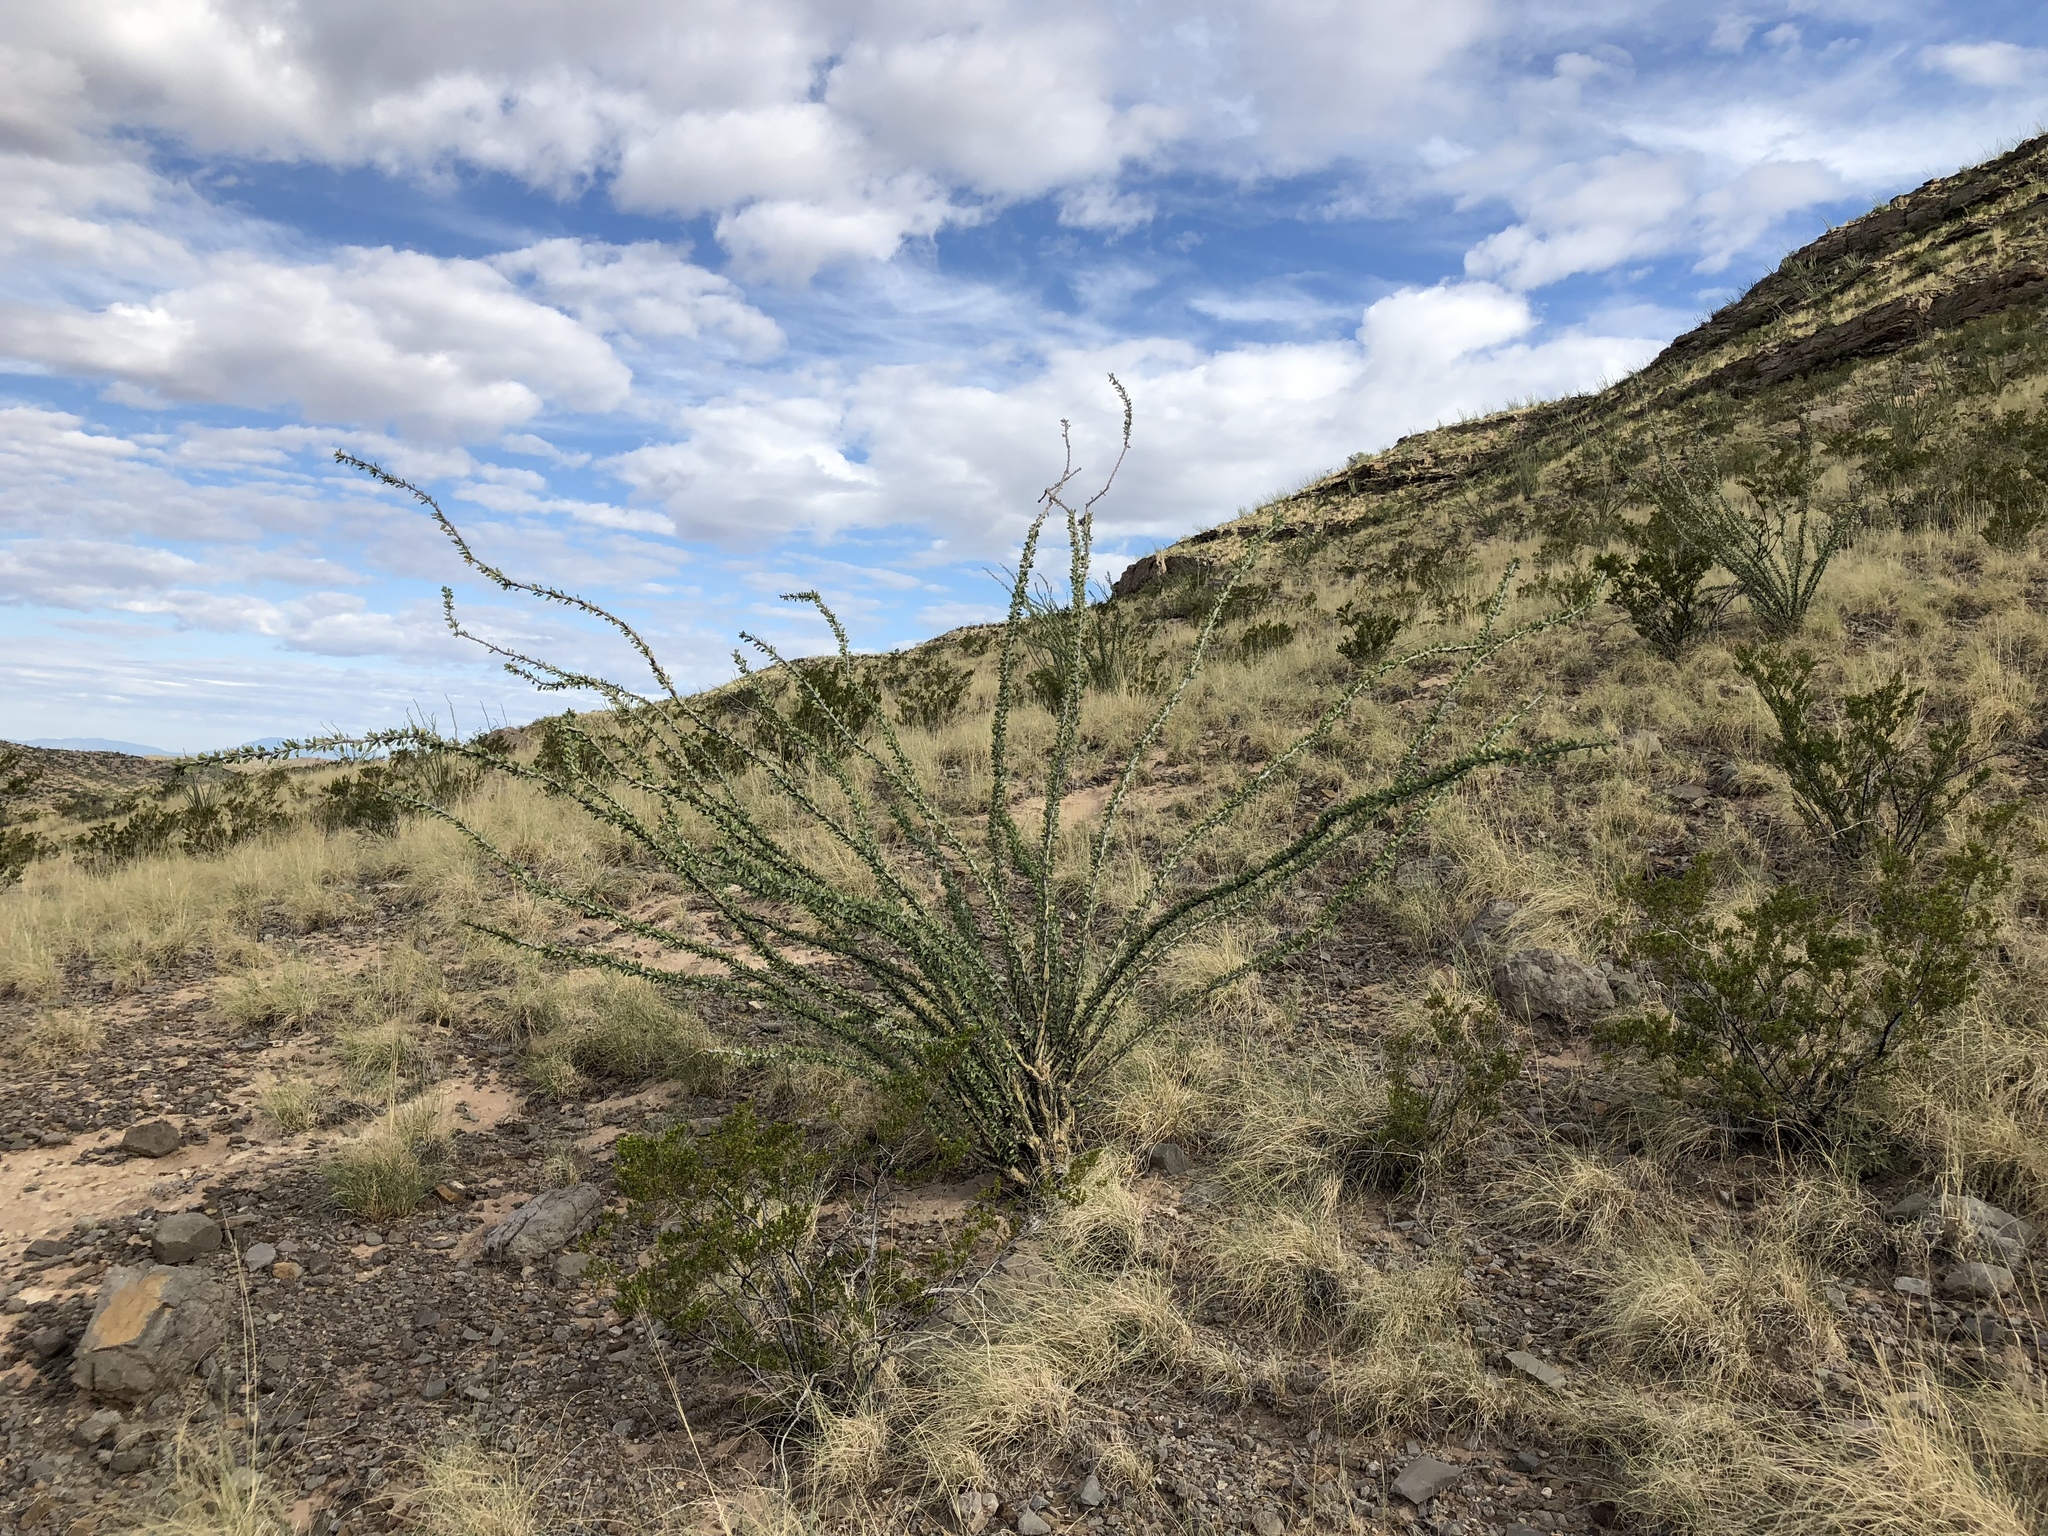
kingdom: Plantae
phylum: Tracheophyta
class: Magnoliopsida
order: Ericales
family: Fouquieriaceae
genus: Fouquieria
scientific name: Fouquieria splendens
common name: Vine-cactus
